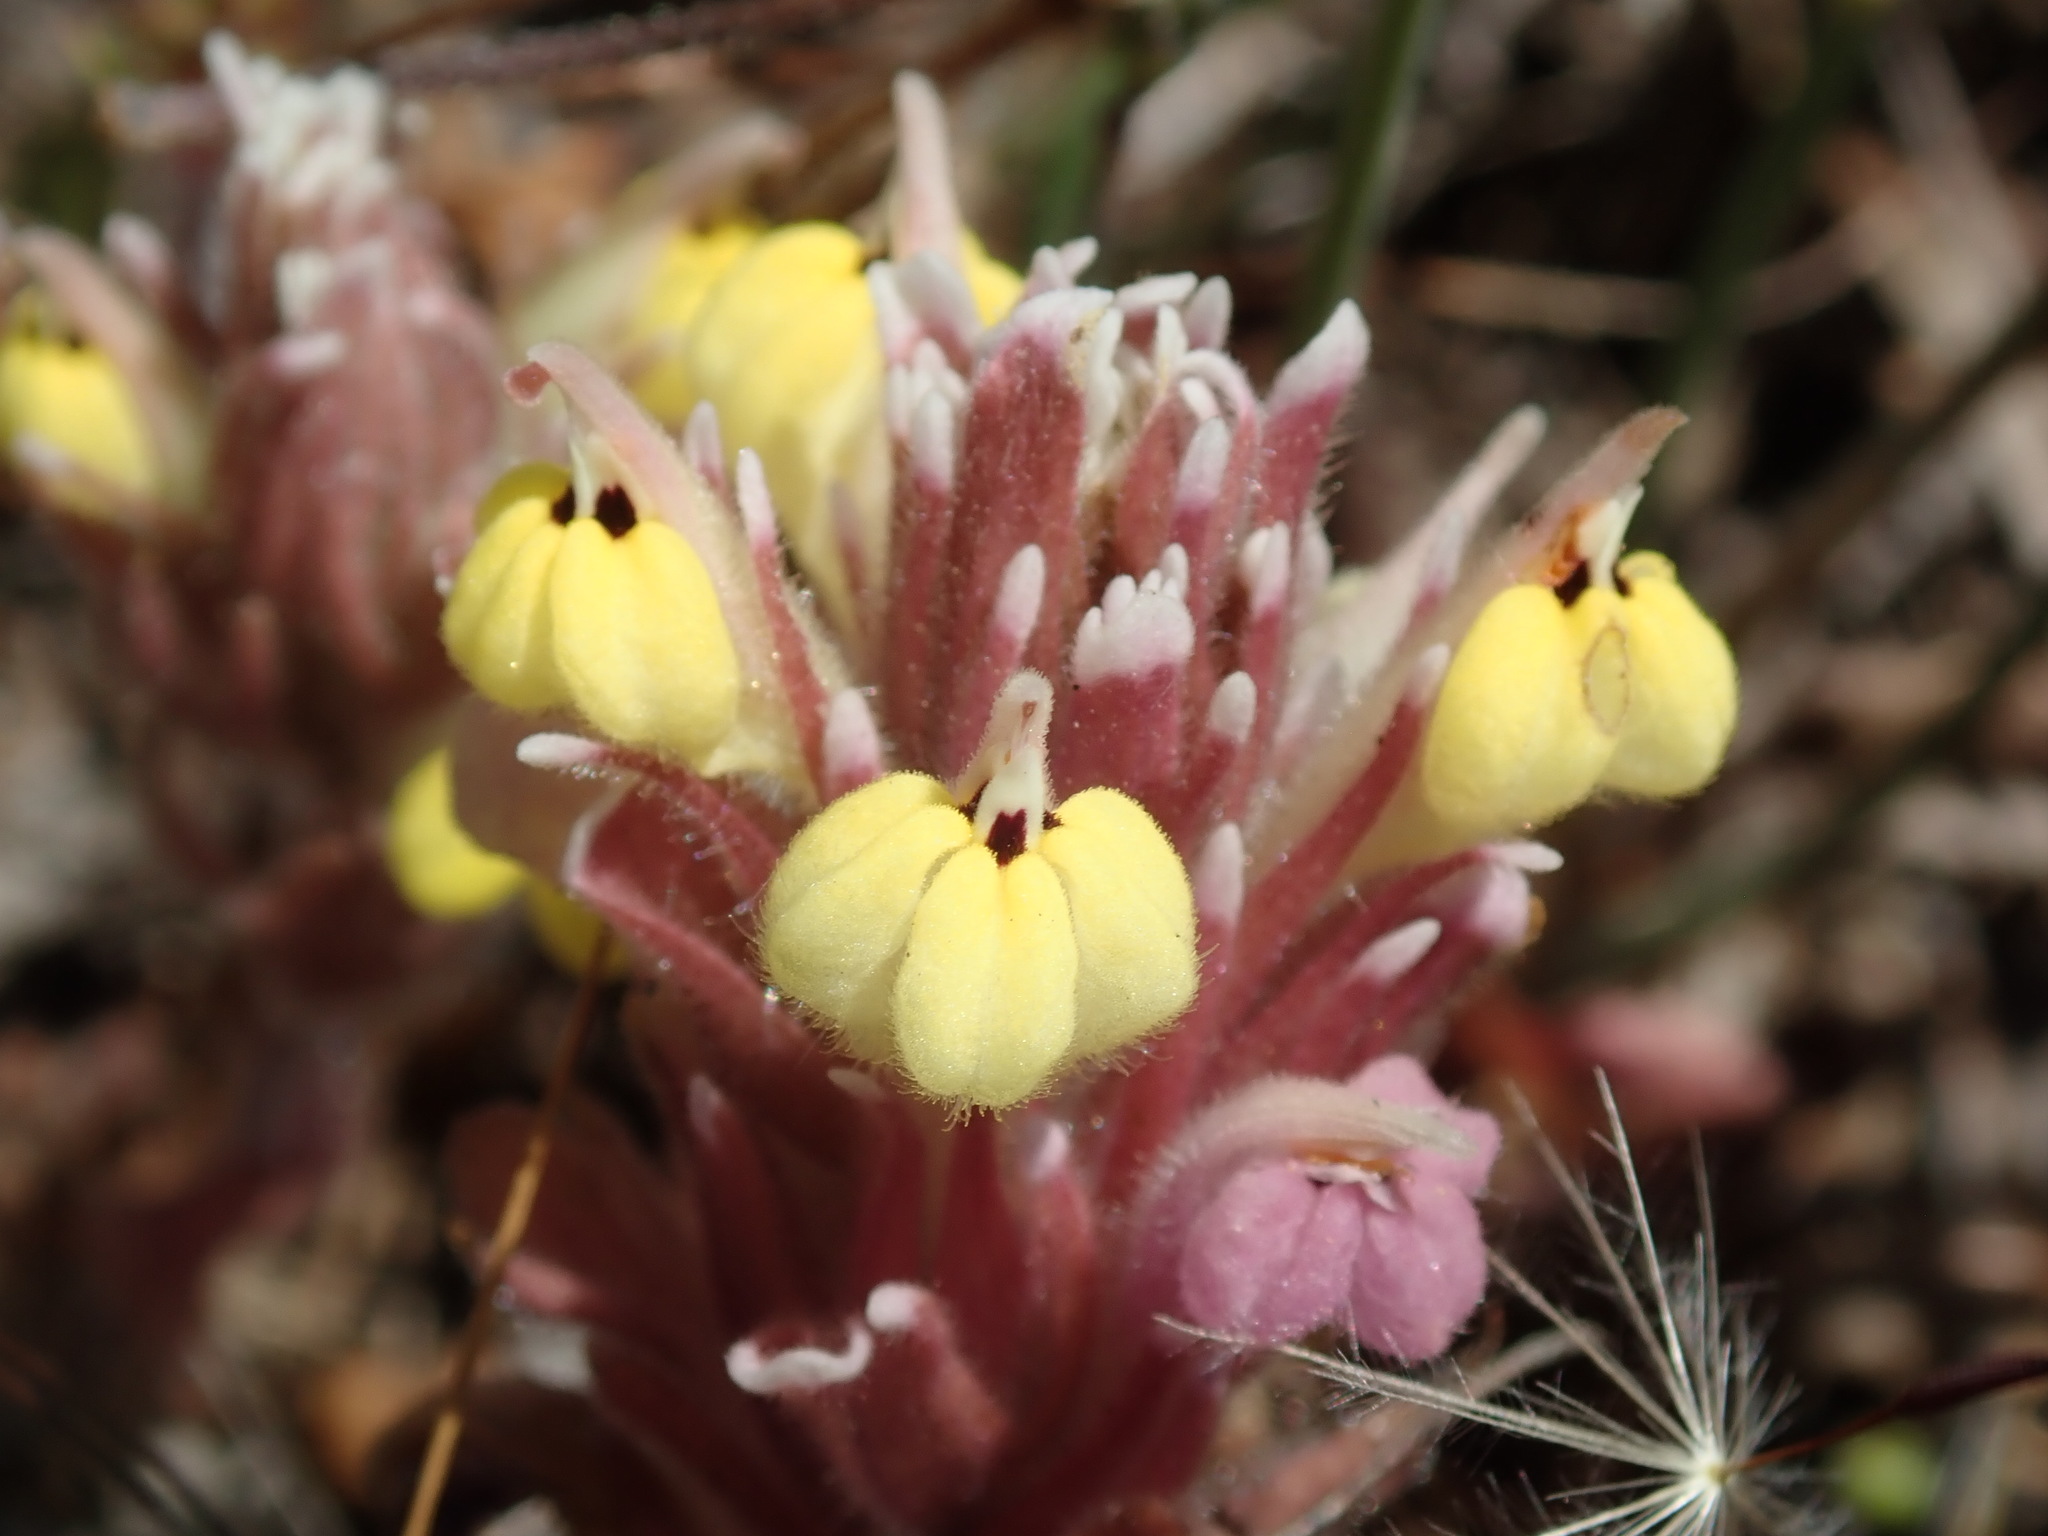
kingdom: Plantae
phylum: Tracheophyta
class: Magnoliopsida
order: Lamiales
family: Orobanchaceae
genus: Castilleja
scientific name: Castilleja ambigua
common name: Johnny-nip
